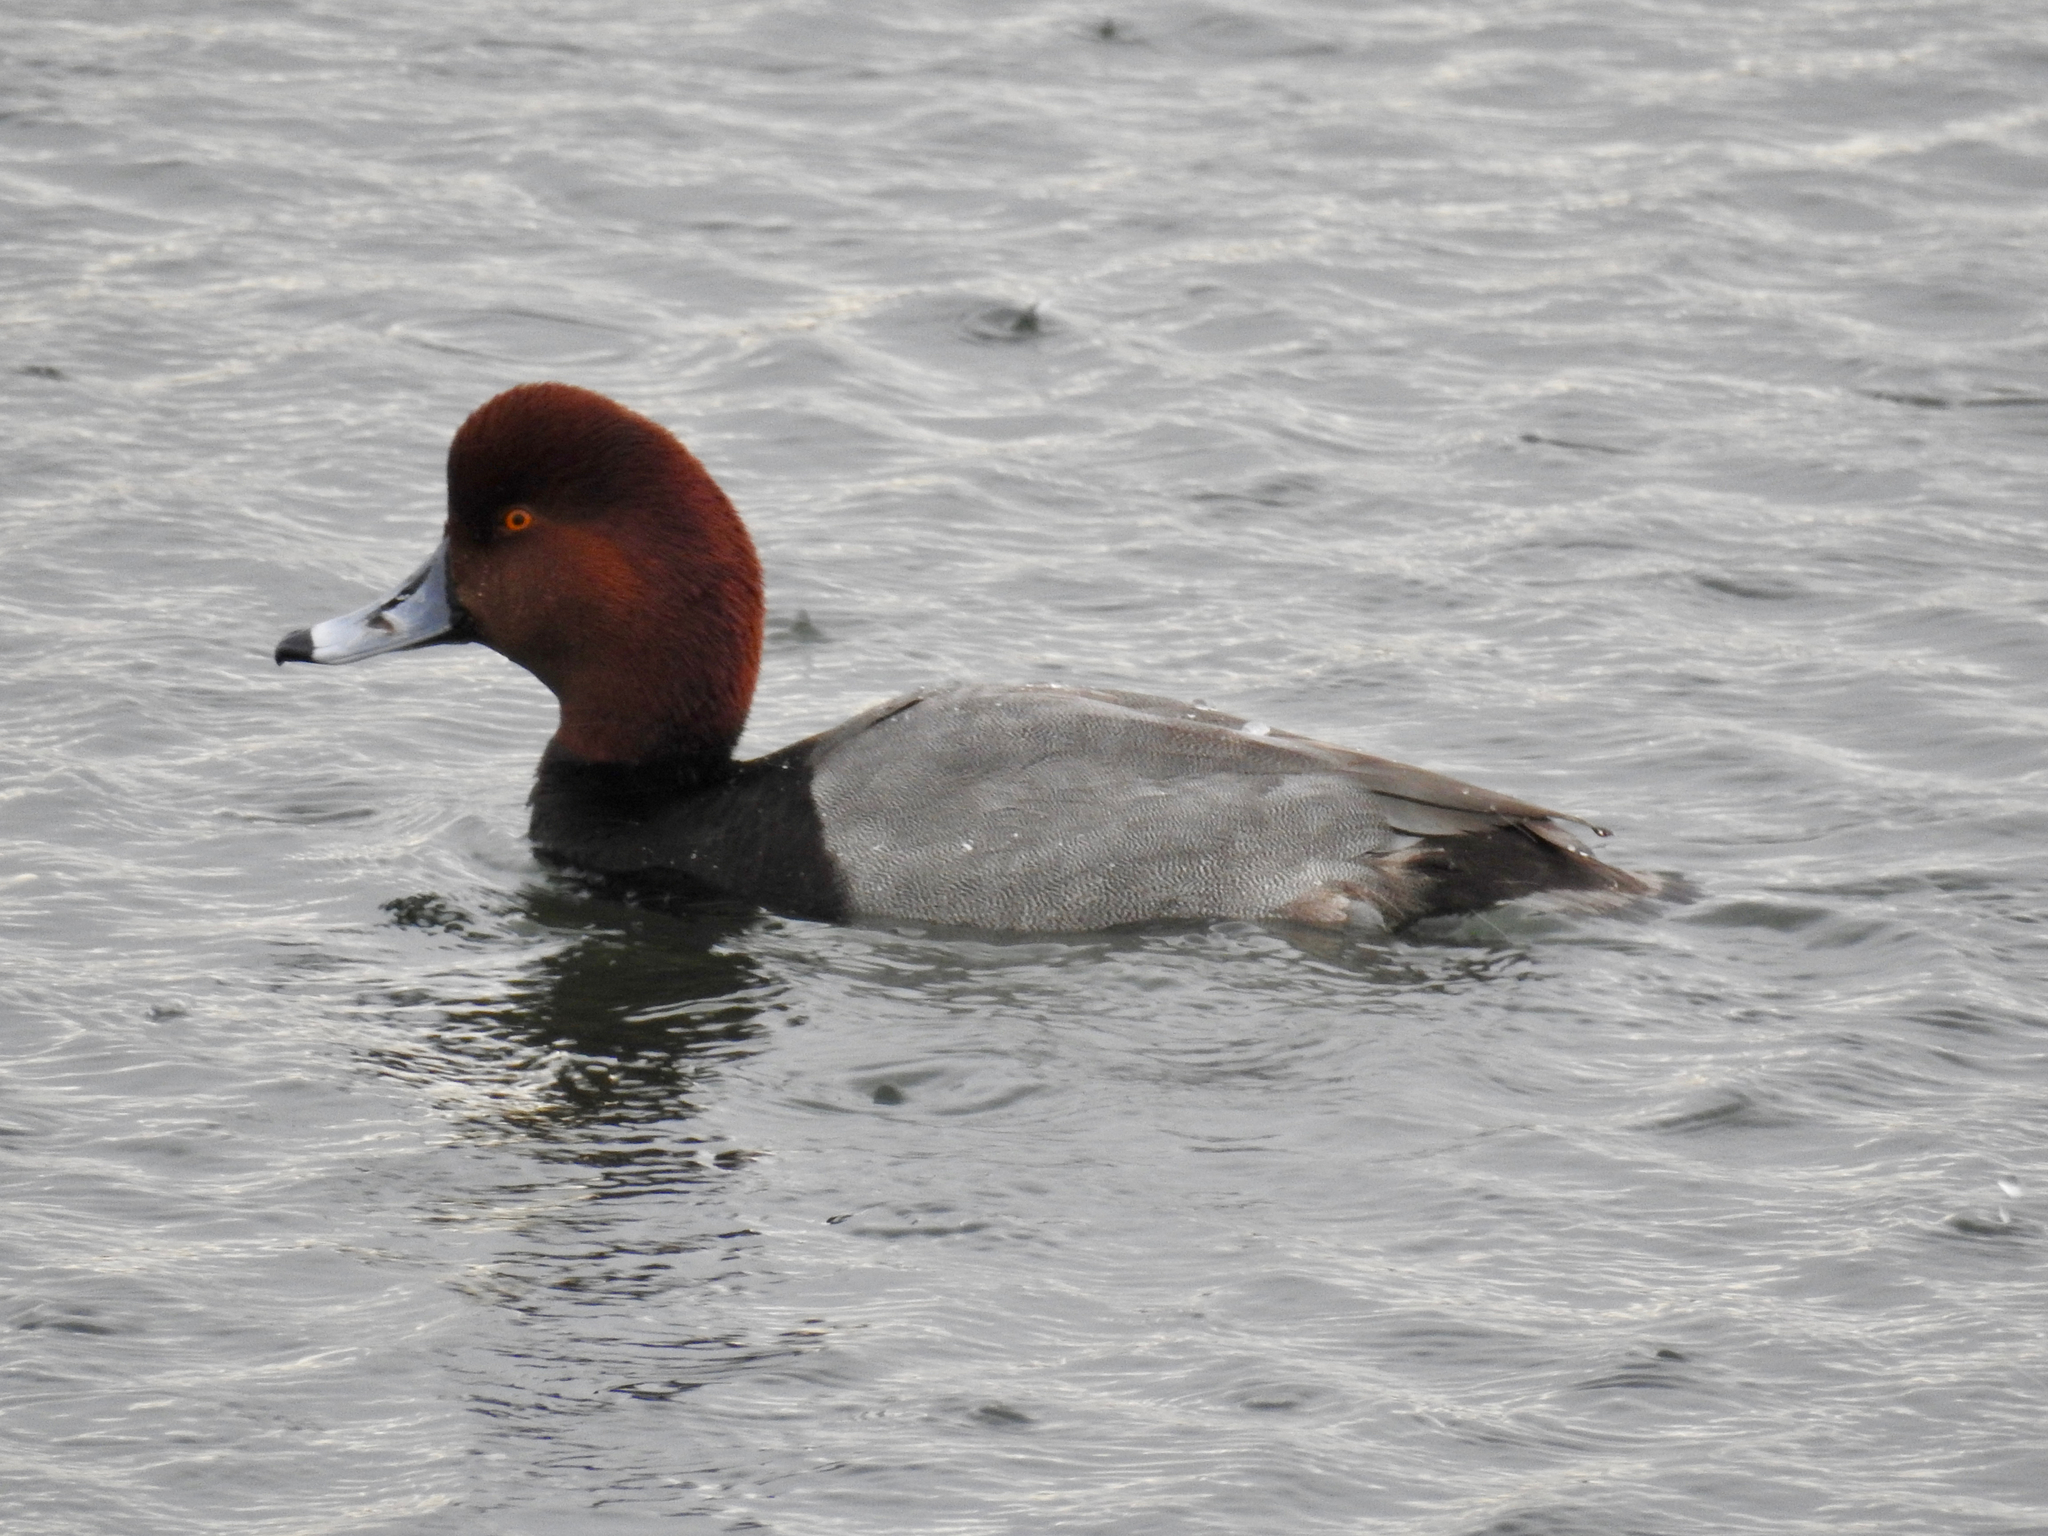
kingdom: Animalia
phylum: Chordata
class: Aves
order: Anseriformes
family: Anatidae
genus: Aythya
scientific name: Aythya americana
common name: Redhead
